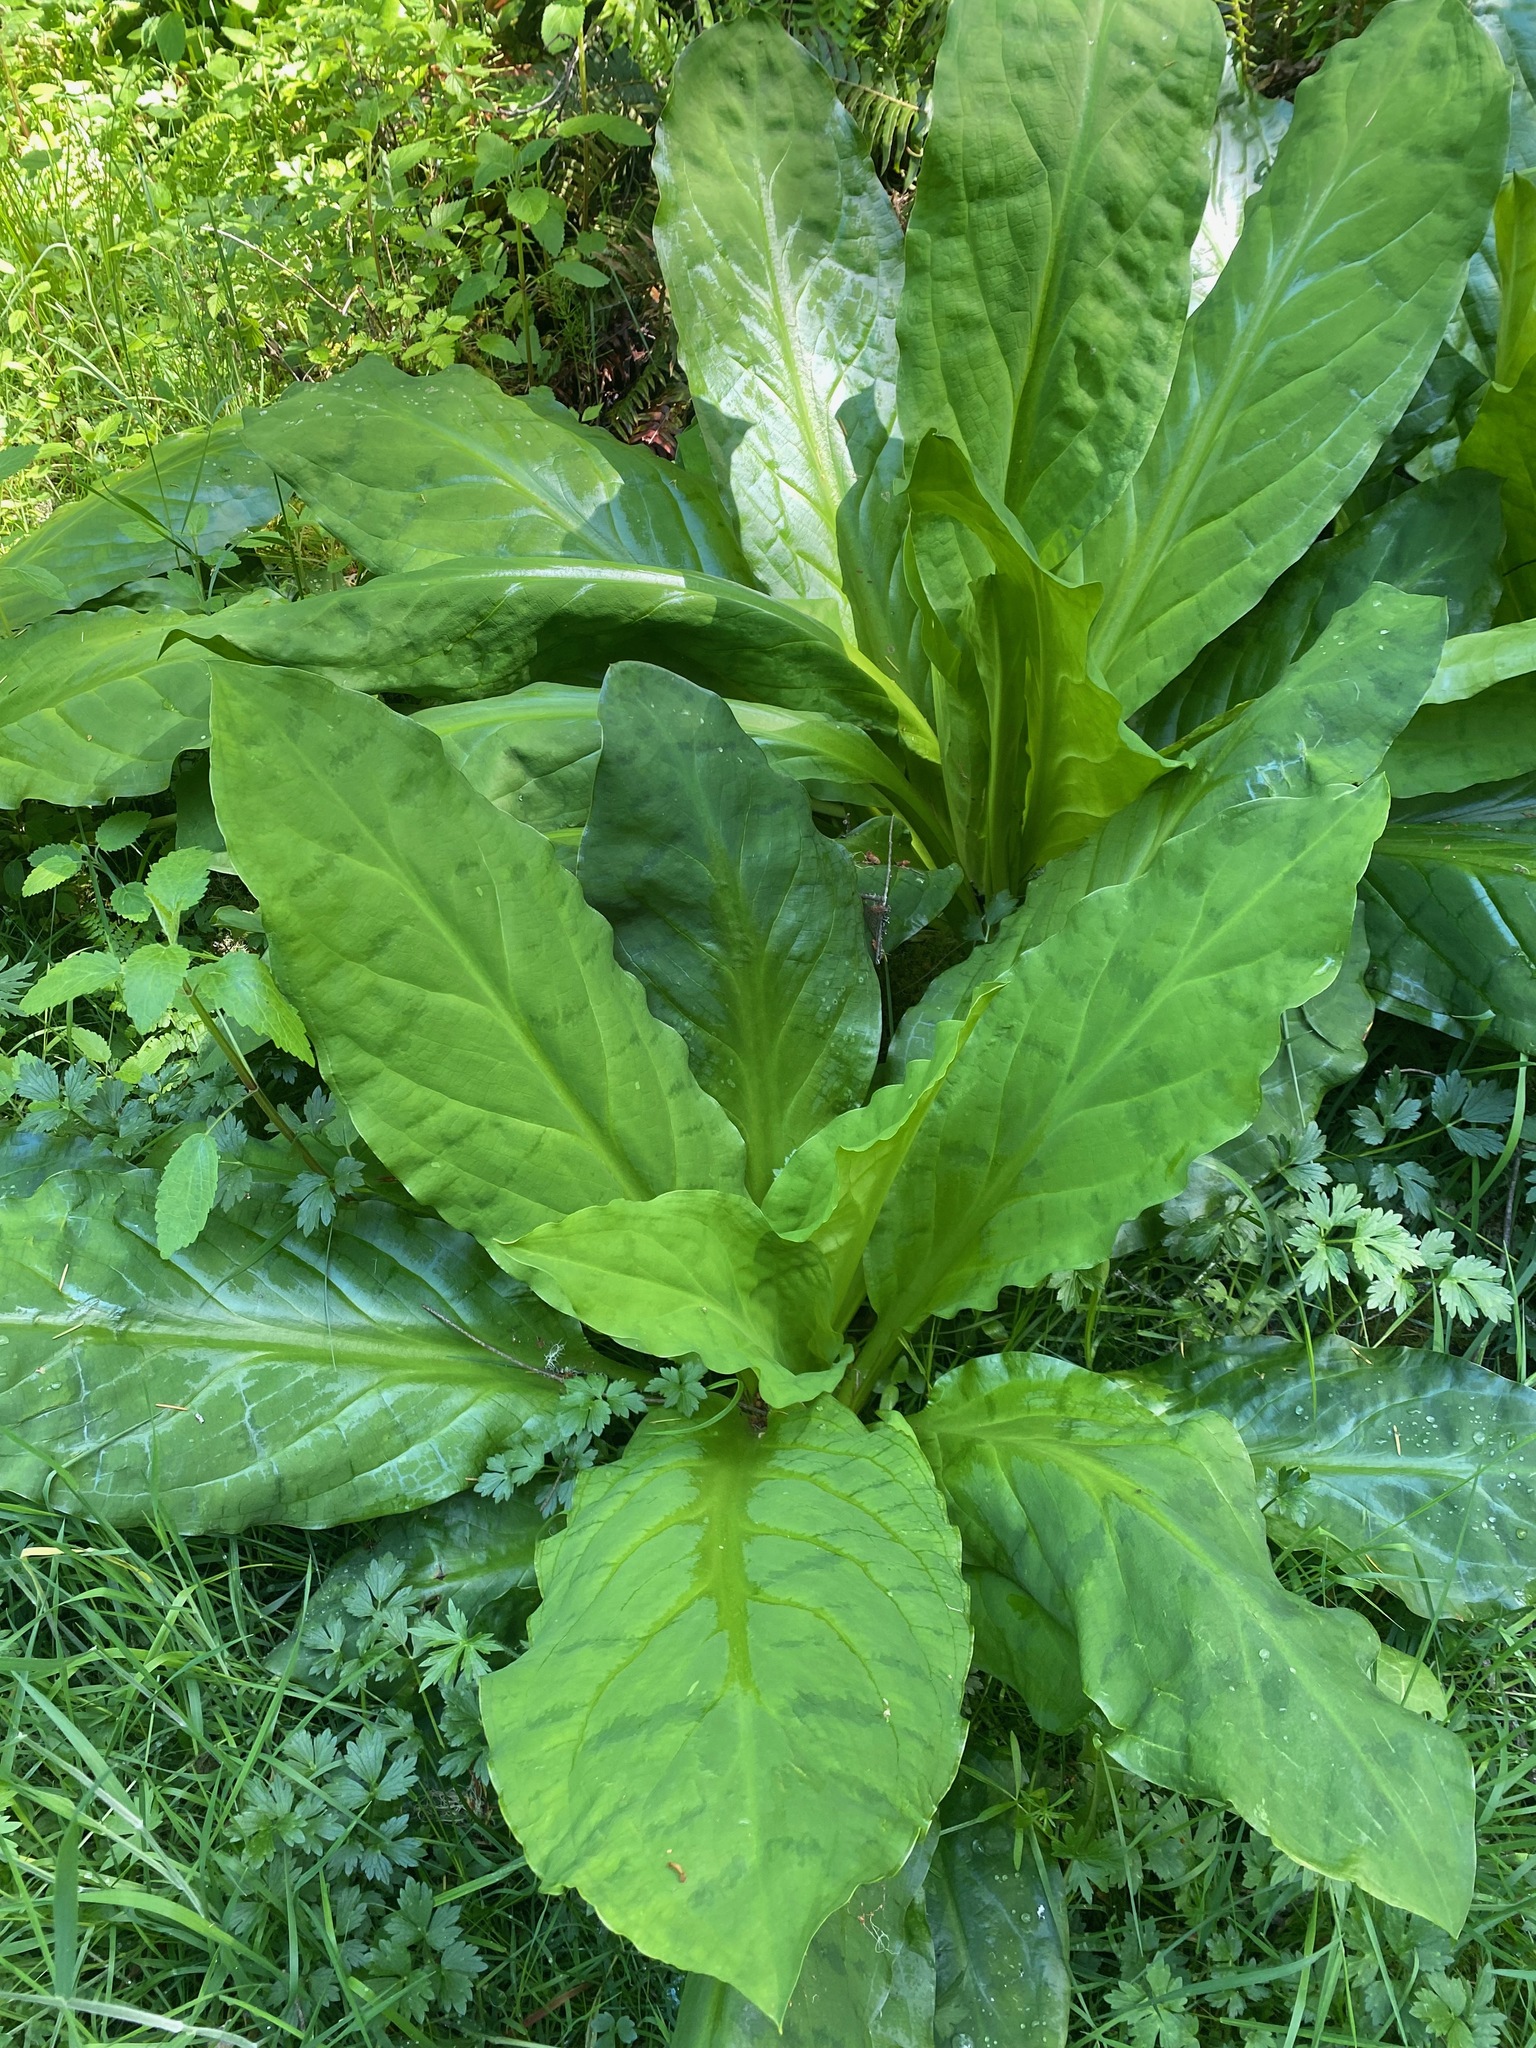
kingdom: Plantae
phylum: Tracheophyta
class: Liliopsida
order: Alismatales
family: Araceae
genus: Lysichiton
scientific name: Lysichiton americanus
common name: American skunk cabbage
